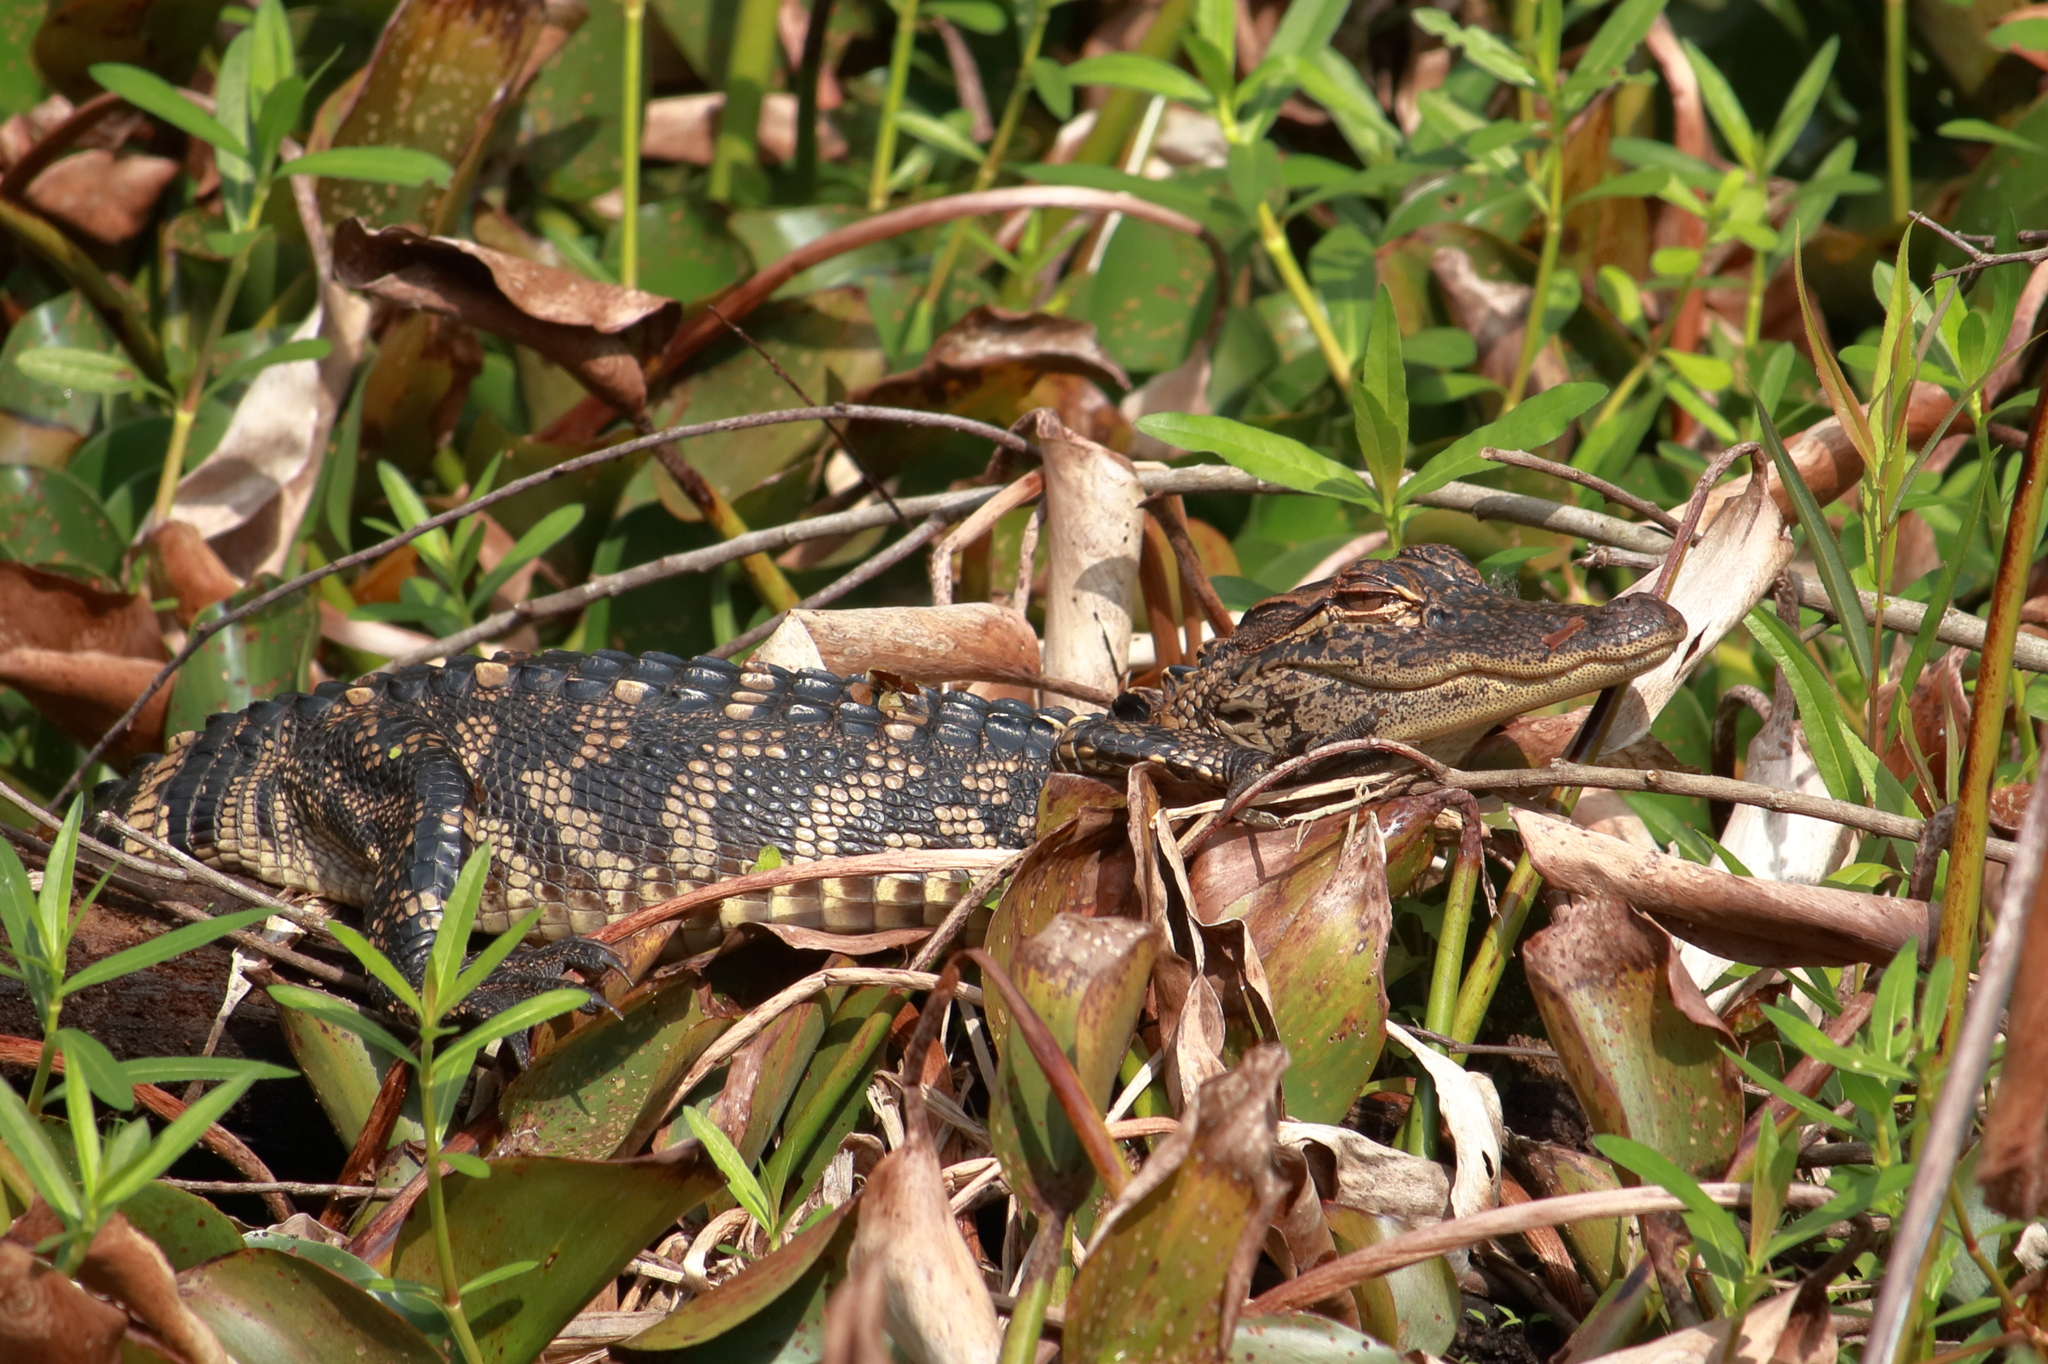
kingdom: Animalia
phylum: Chordata
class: Crocodylia
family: Alligatoridae
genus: Alligator
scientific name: Alligator mississippiensis
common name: American alligator
